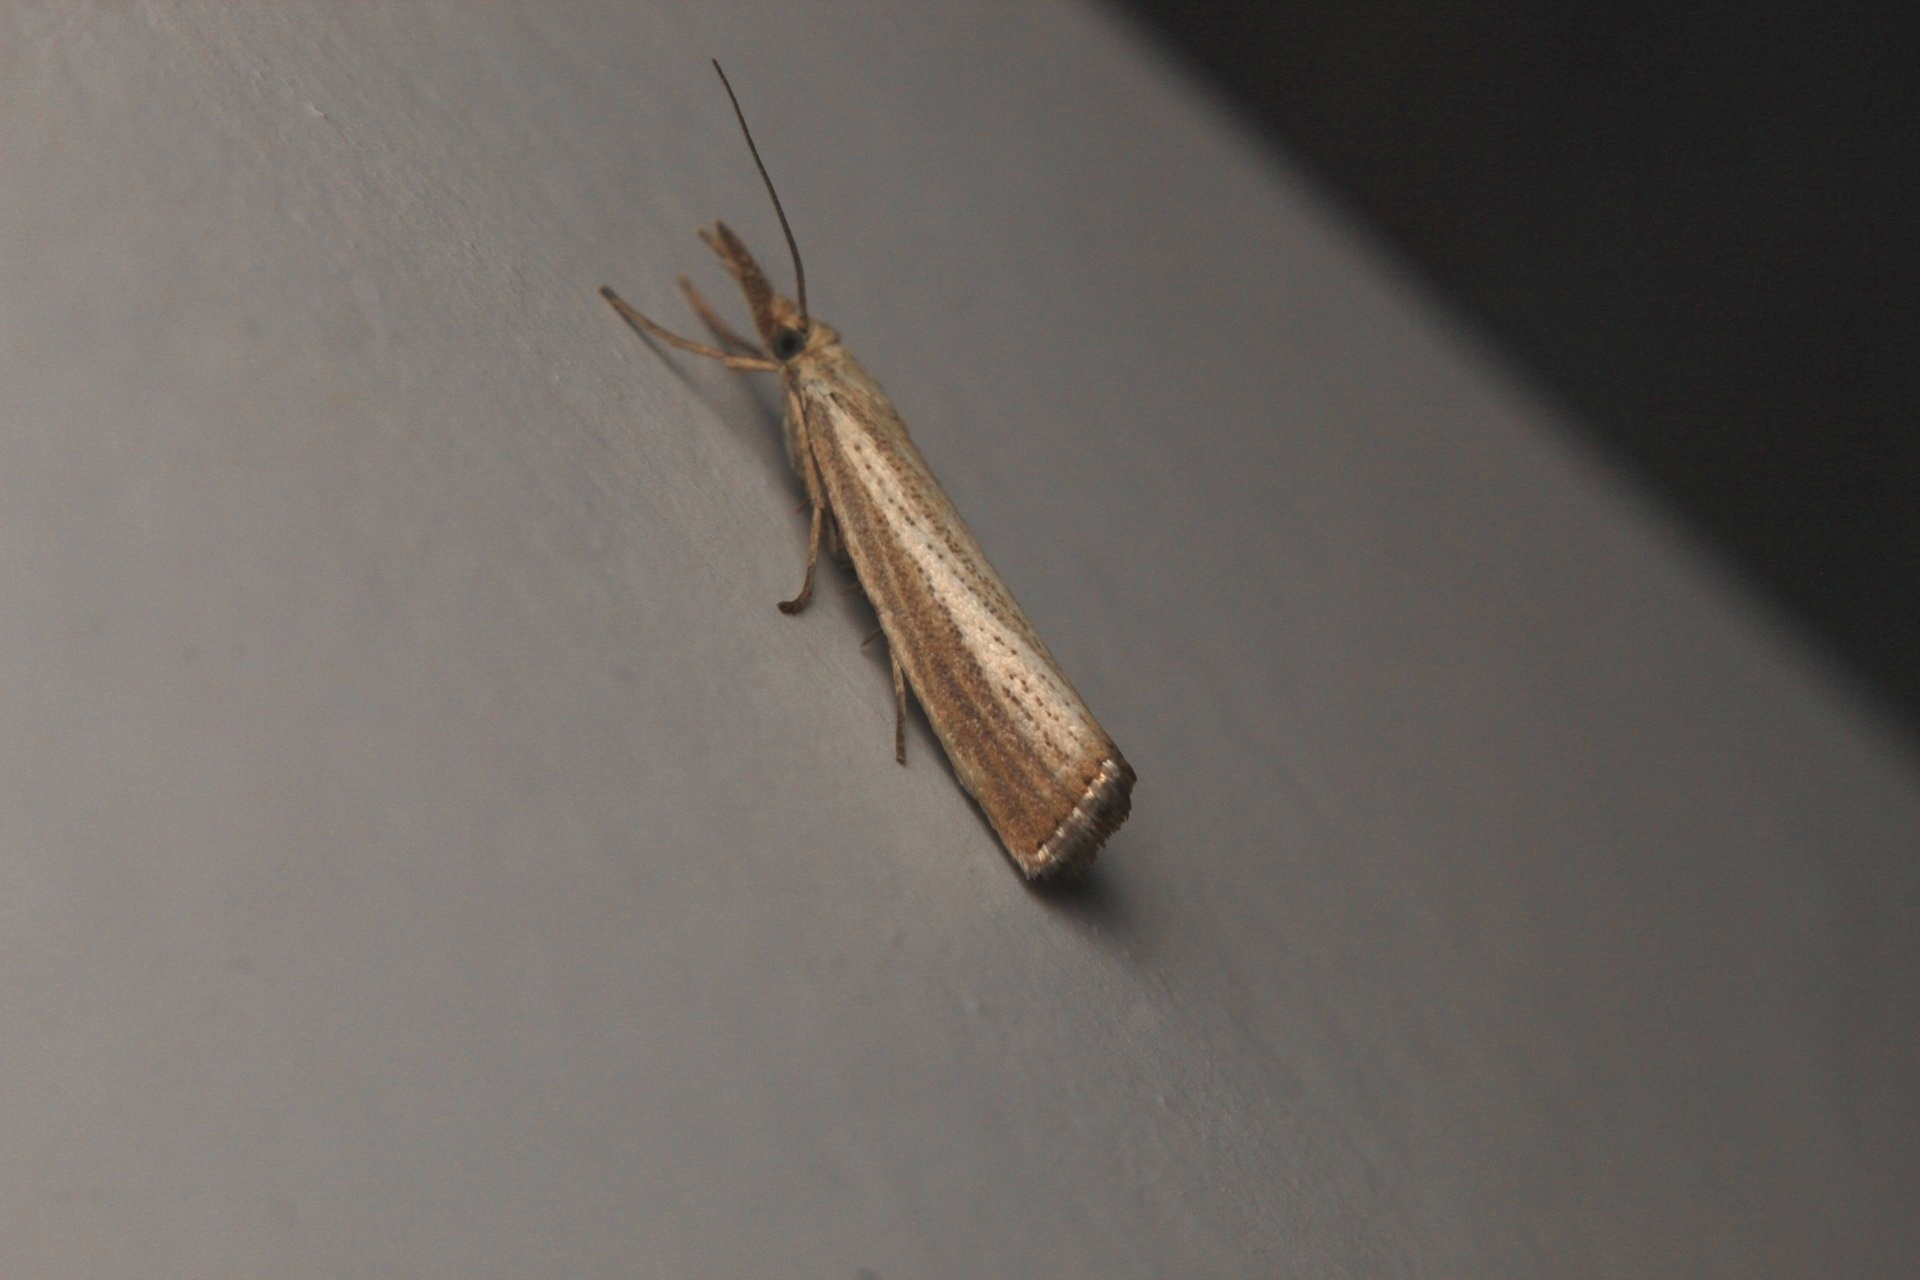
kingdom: Animalia
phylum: Arthropoda
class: Insecta
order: Lepidoptera
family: Crambidae
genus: Agriphila
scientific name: Agriphila straminella
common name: Straw grass-veneer
